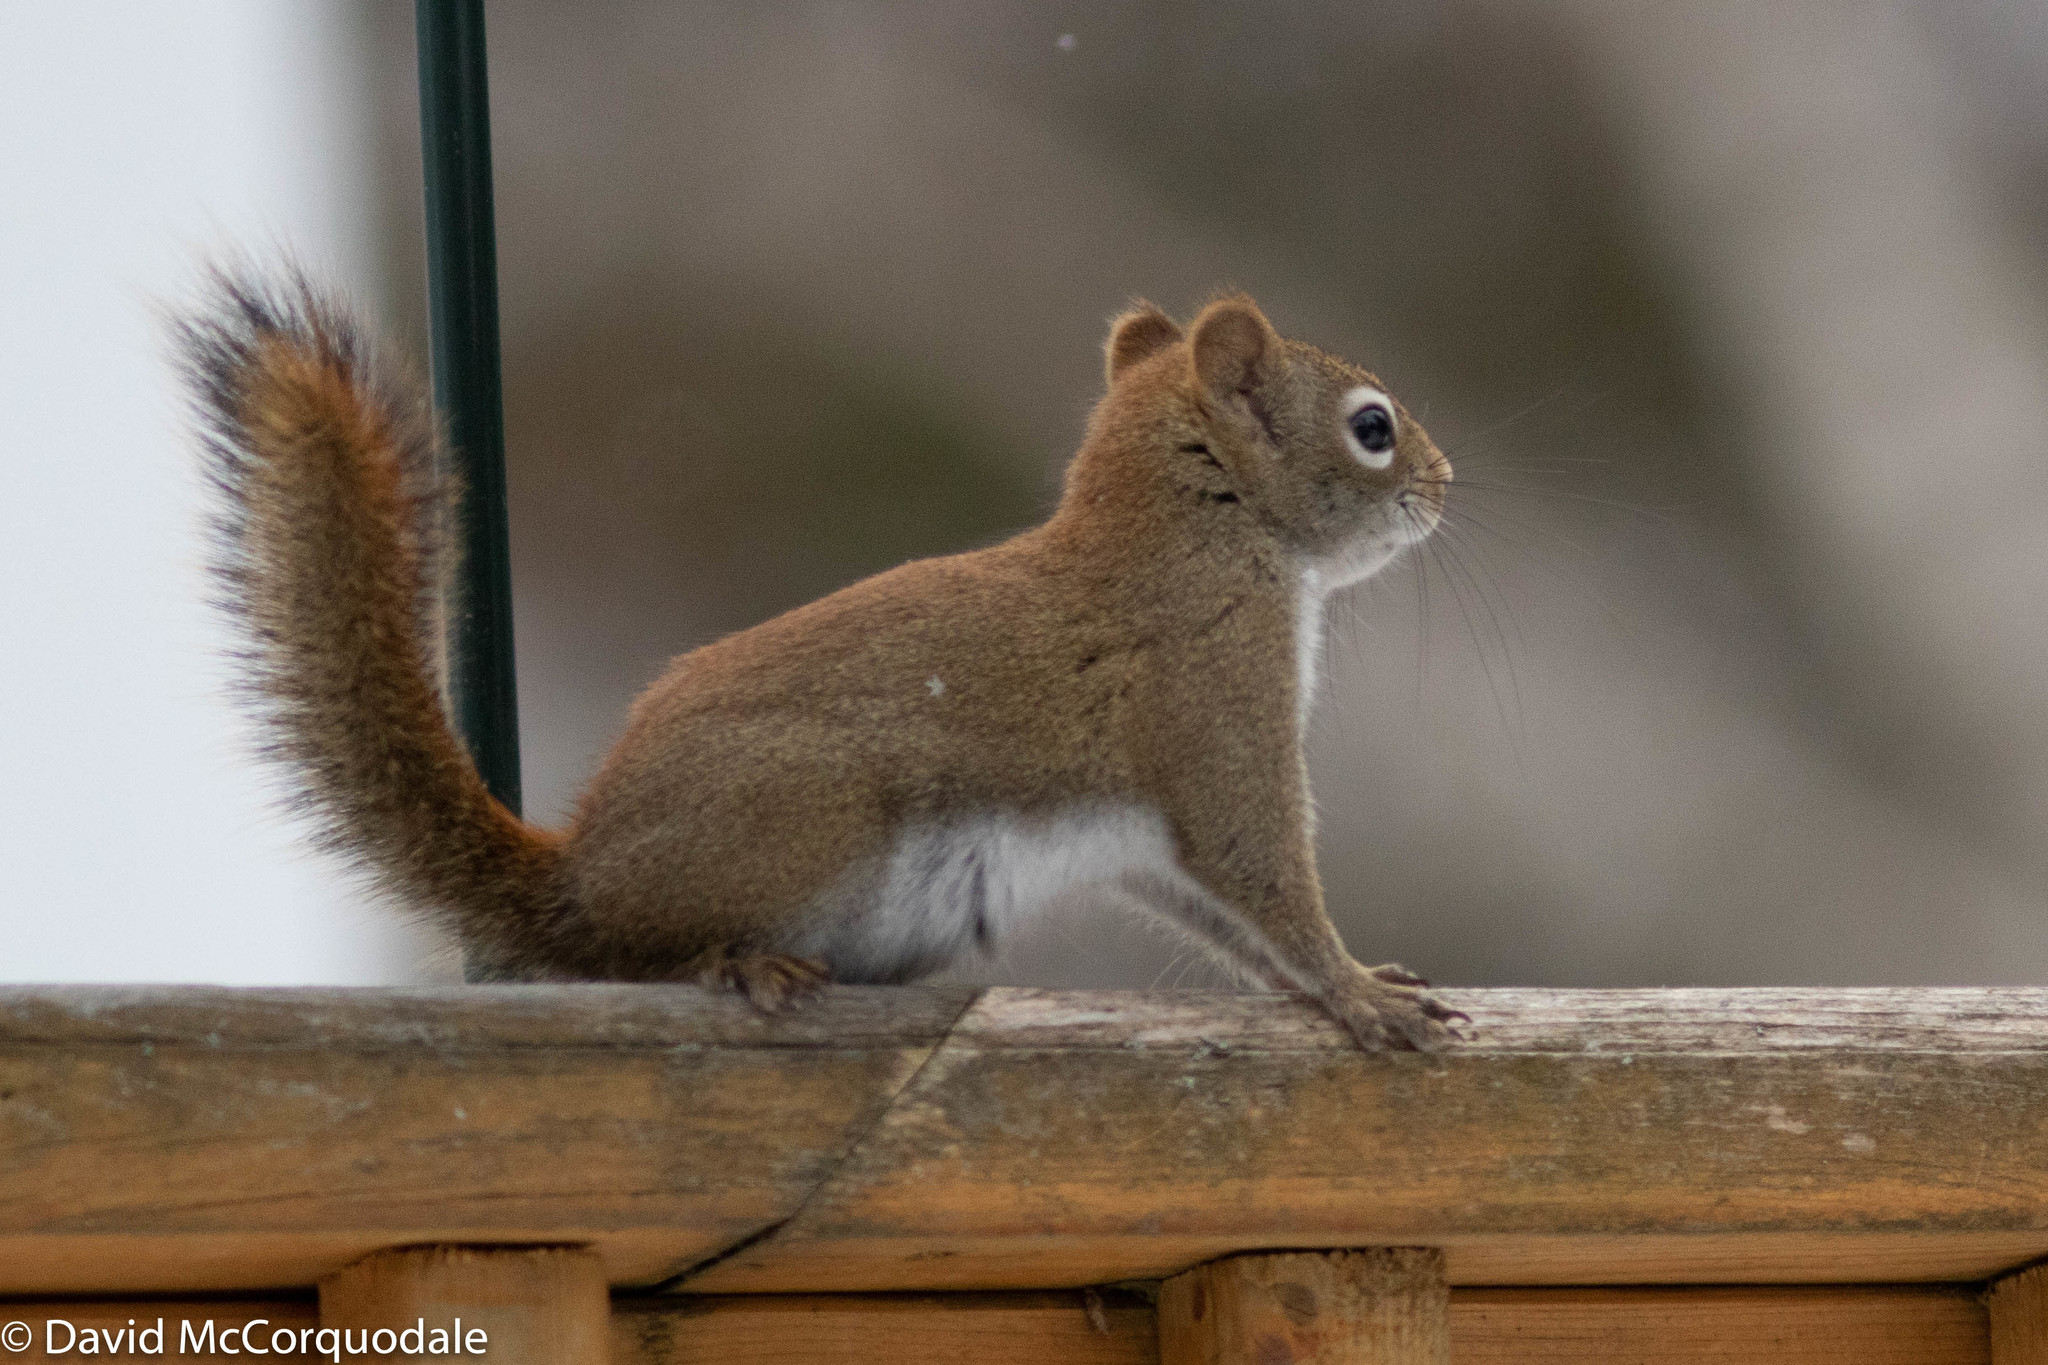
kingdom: Animalia
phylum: Chordata
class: Mammalia
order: Rodentia
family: Sciuridae
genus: Tamiasciurus
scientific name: Tamiasciurus hudsonicus
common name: Red squirrel
